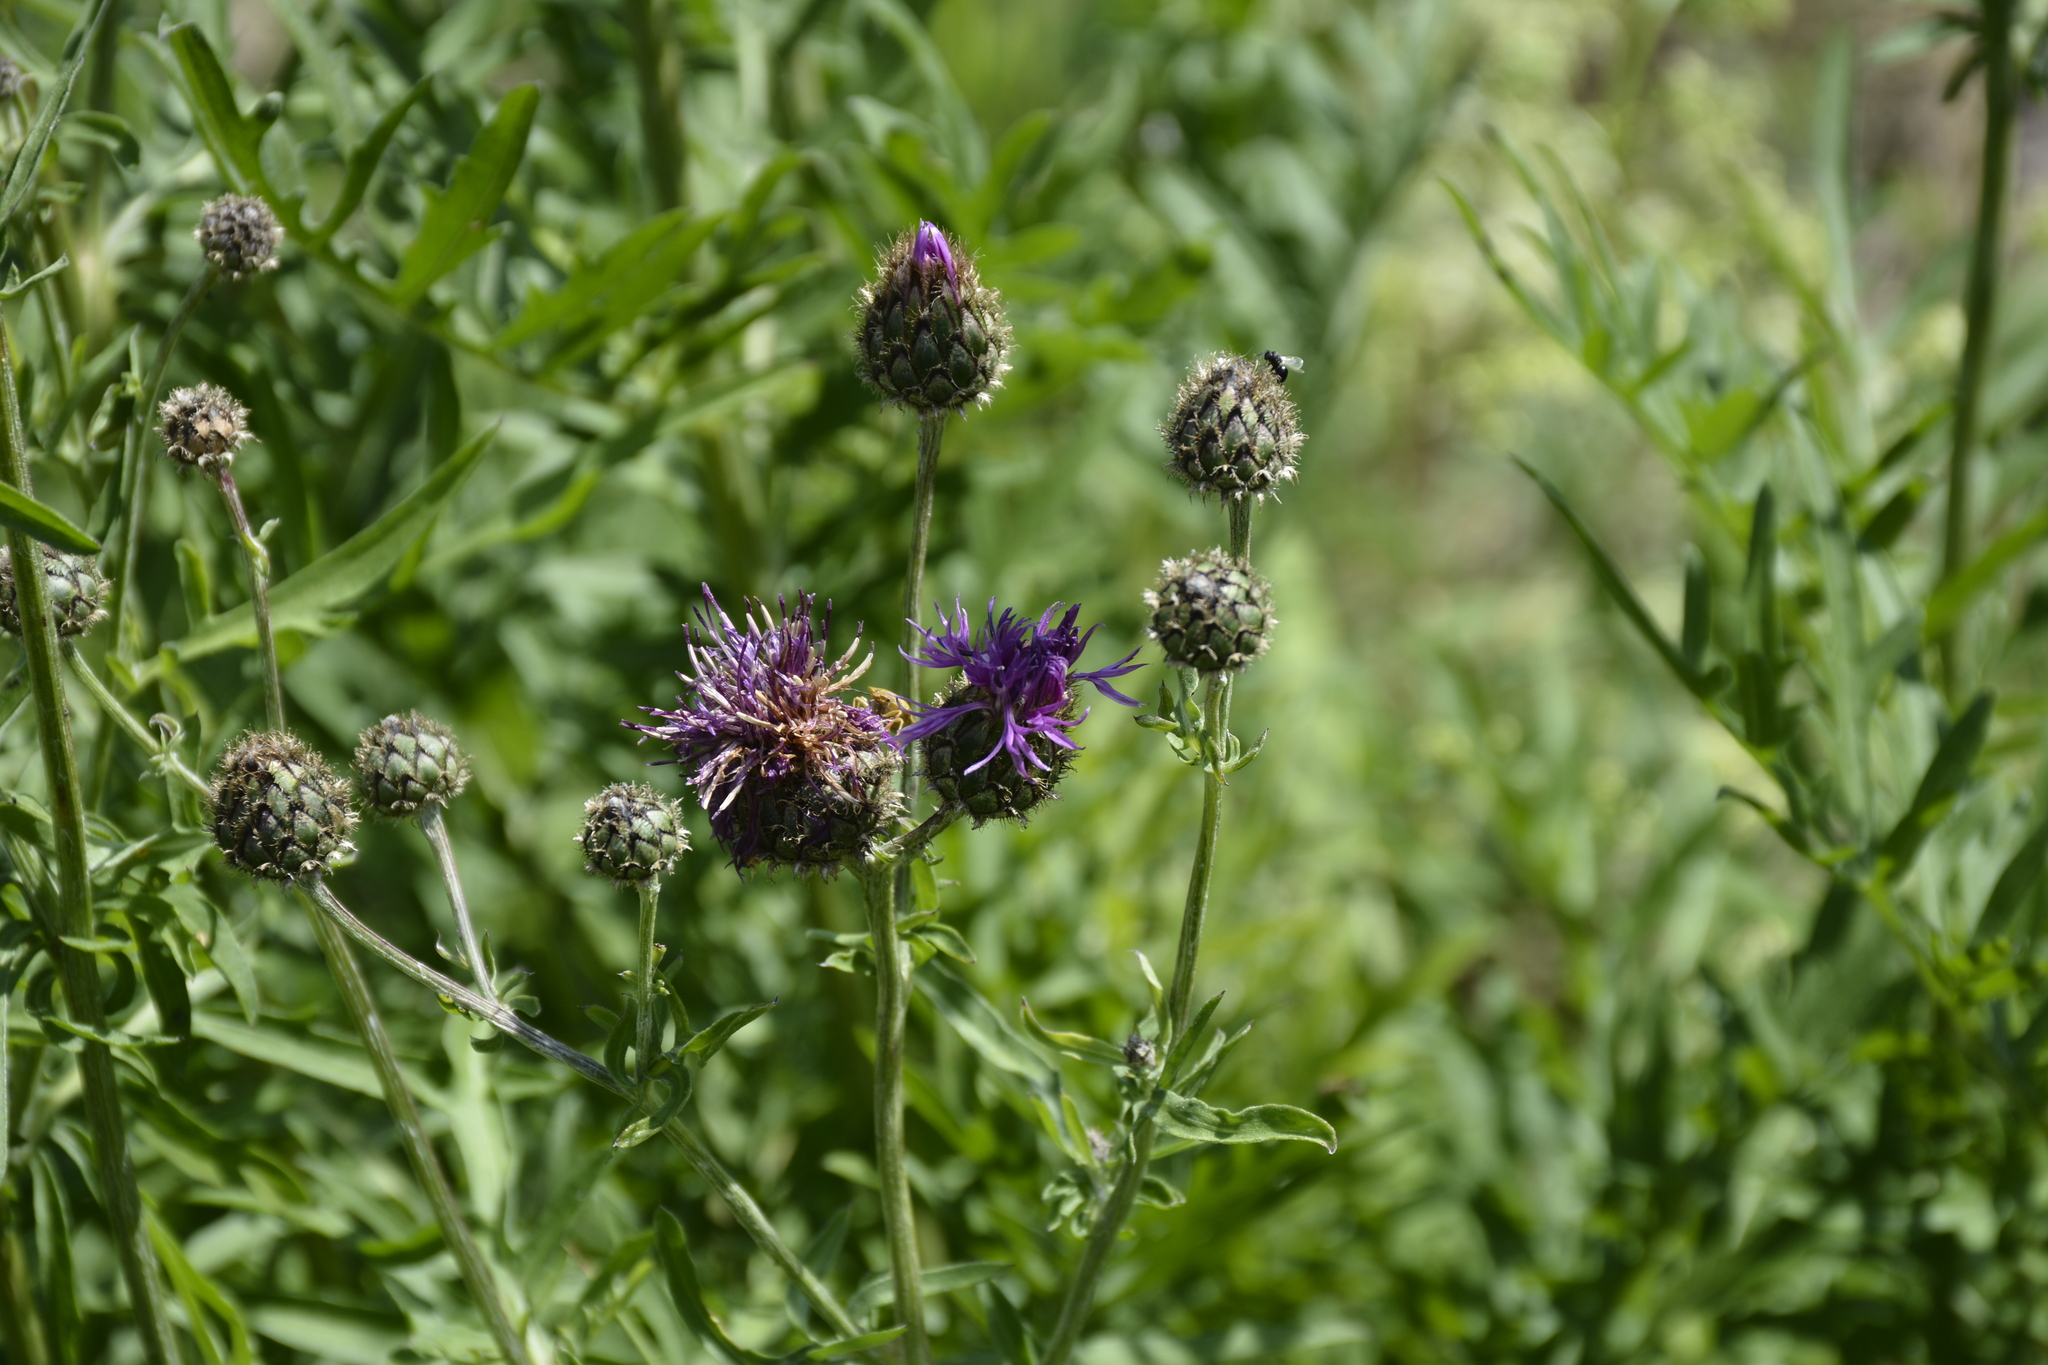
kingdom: Plantae
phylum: Tracheophyta
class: Magnoliopsida
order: Asterales
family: Asteraceae
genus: Centaurea
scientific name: Centaurea scabiosa
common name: Greater knapweed
